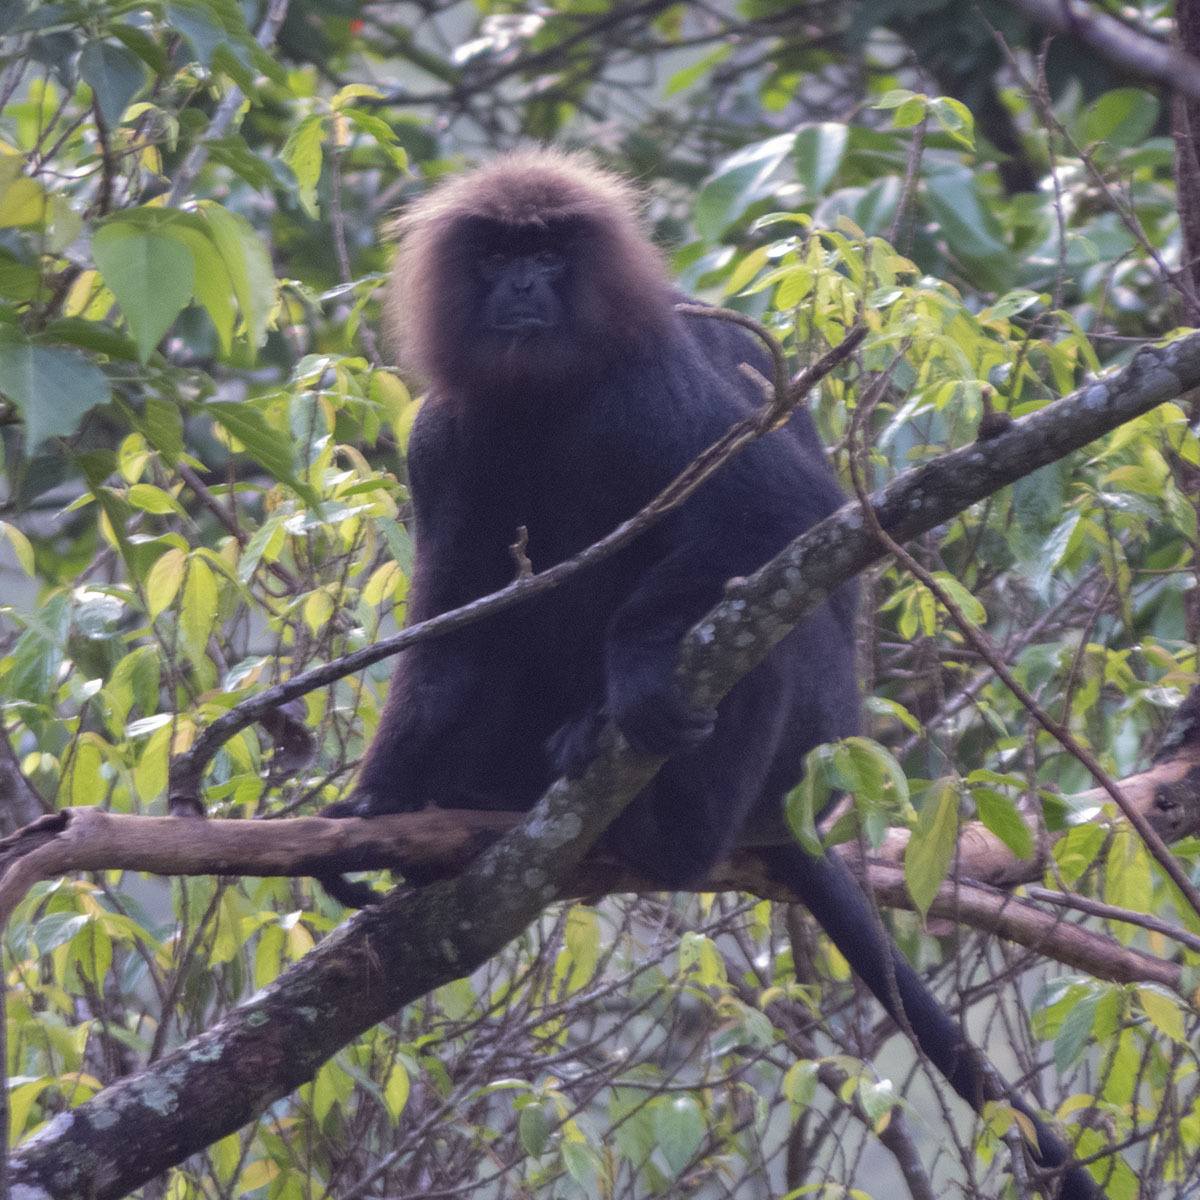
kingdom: Animalia
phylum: Chordata
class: Mammalia
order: Primates
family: Cercopithecidae
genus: Semnopithecus
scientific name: Semnopithecus johnii
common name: Nilgiri langur
